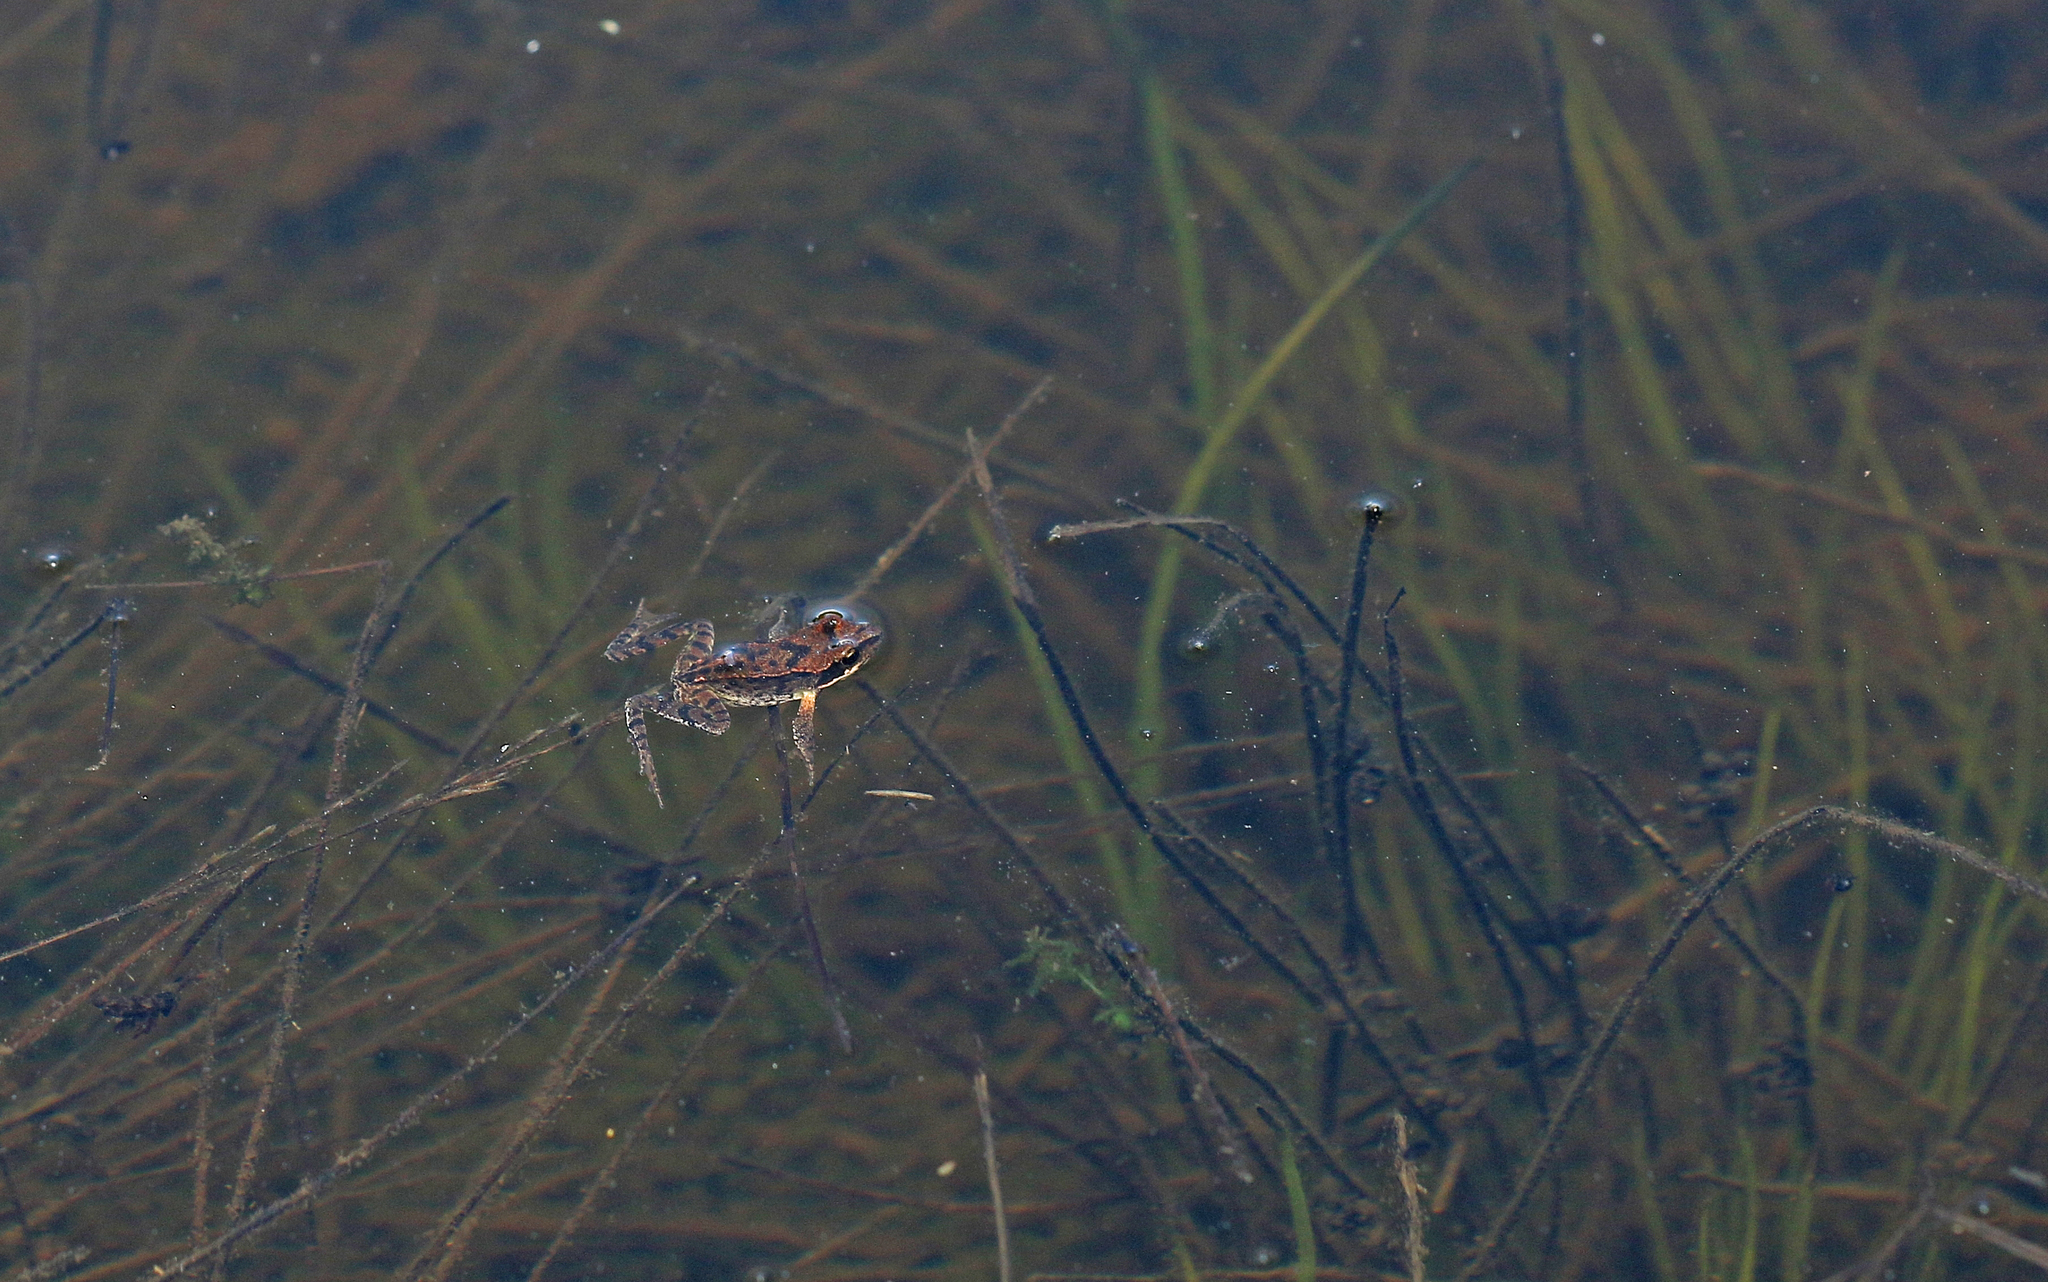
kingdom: Animalia
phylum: Chordata
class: Amphibia
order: Anura
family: Ranidae
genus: Rana
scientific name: Rana temporaria
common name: Common frog
